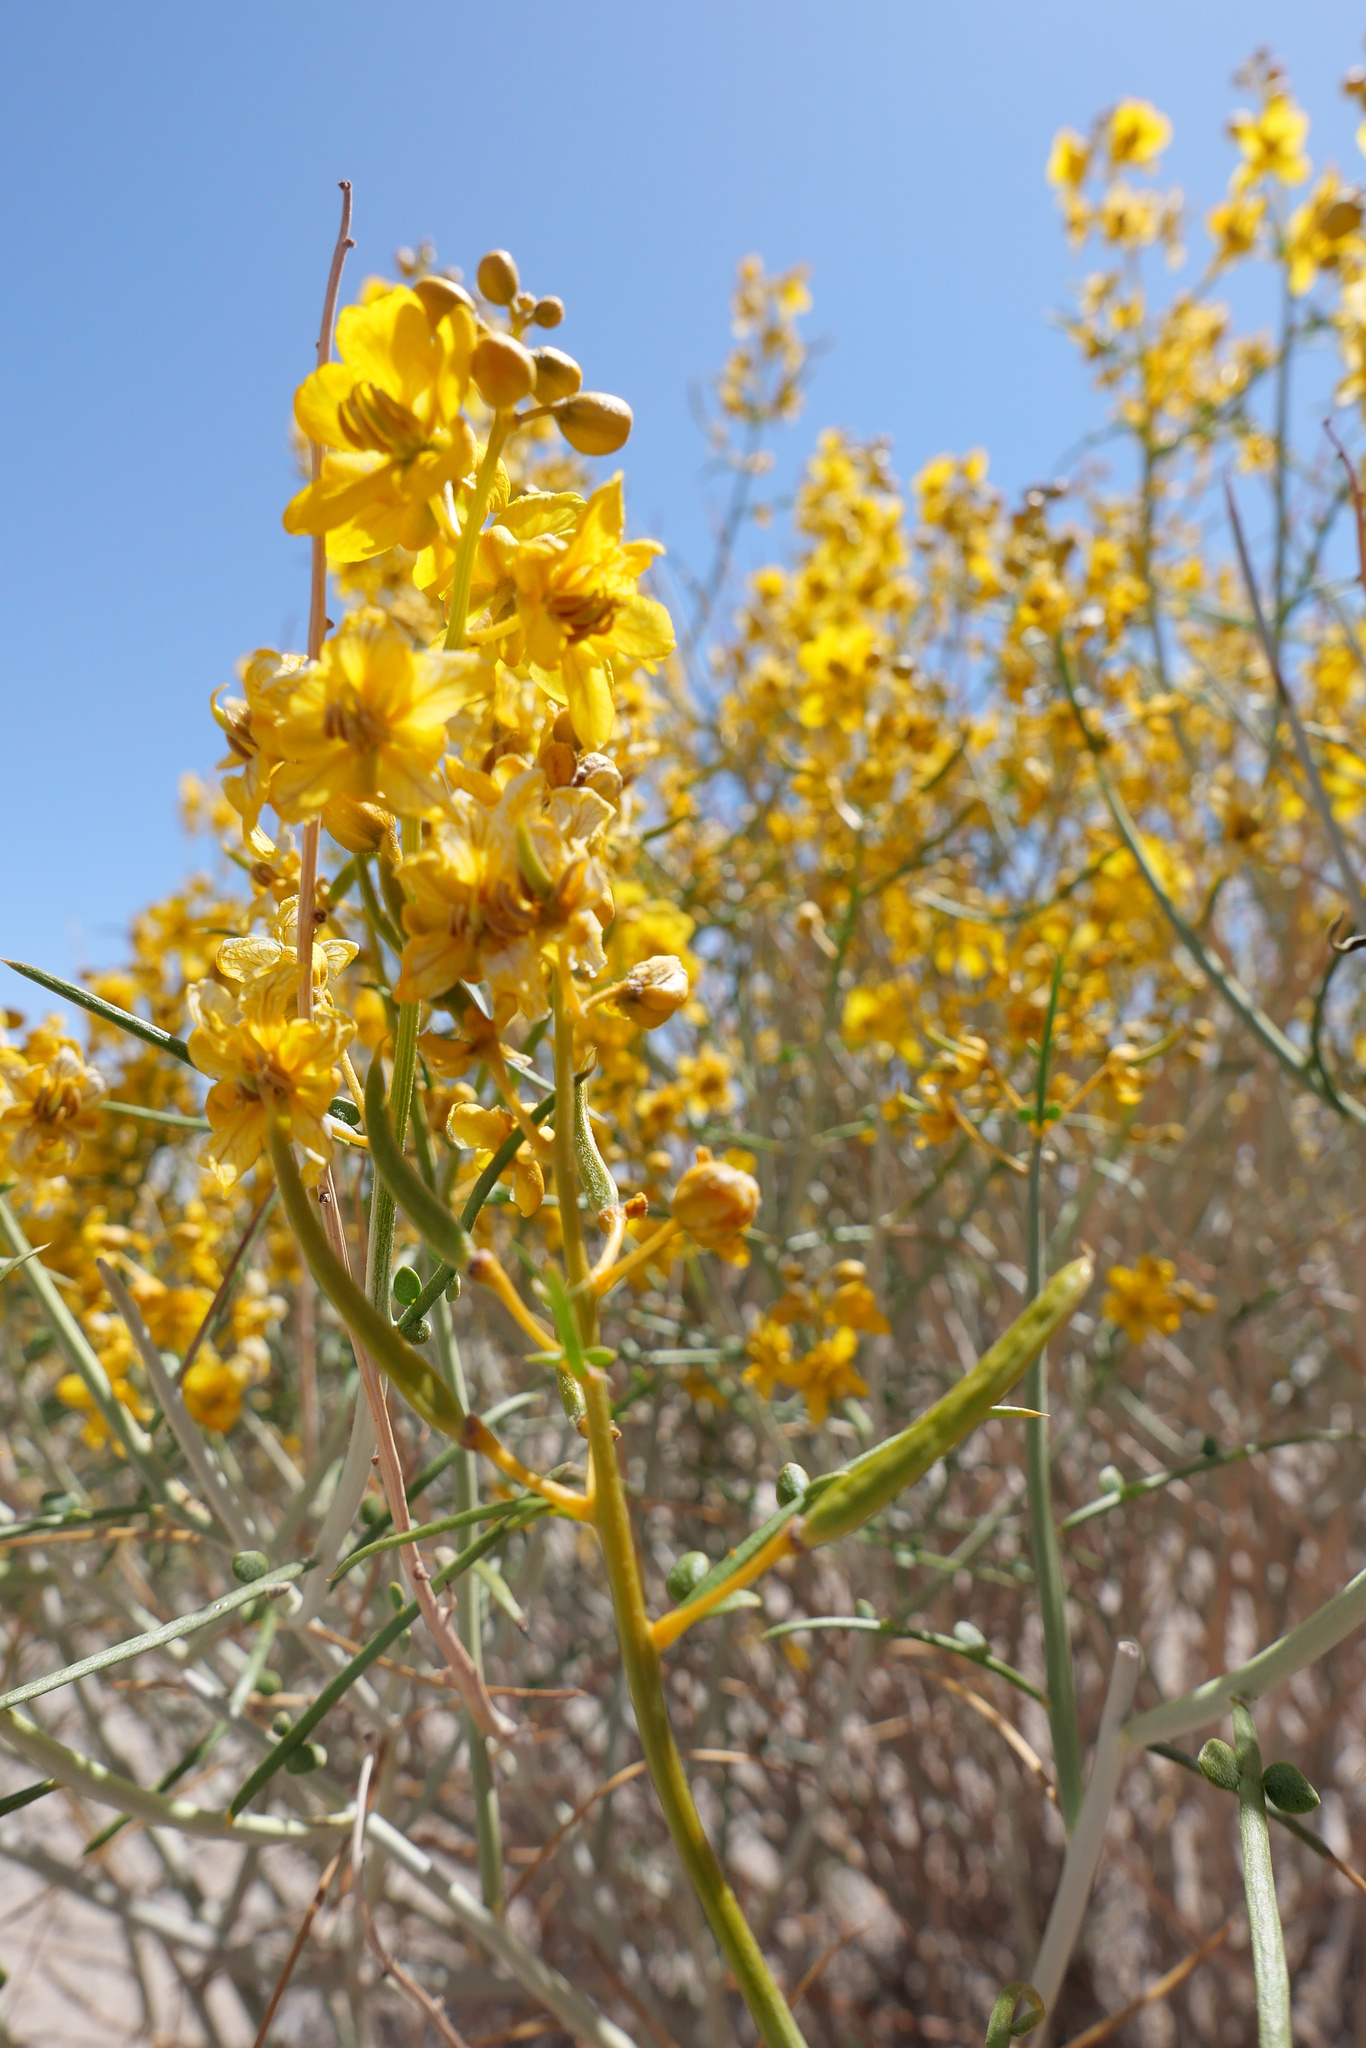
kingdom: Plantae
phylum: Tracheophyta
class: Magnoliopsida
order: Fabales
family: Fabaceae
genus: Senna
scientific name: Senna armata
